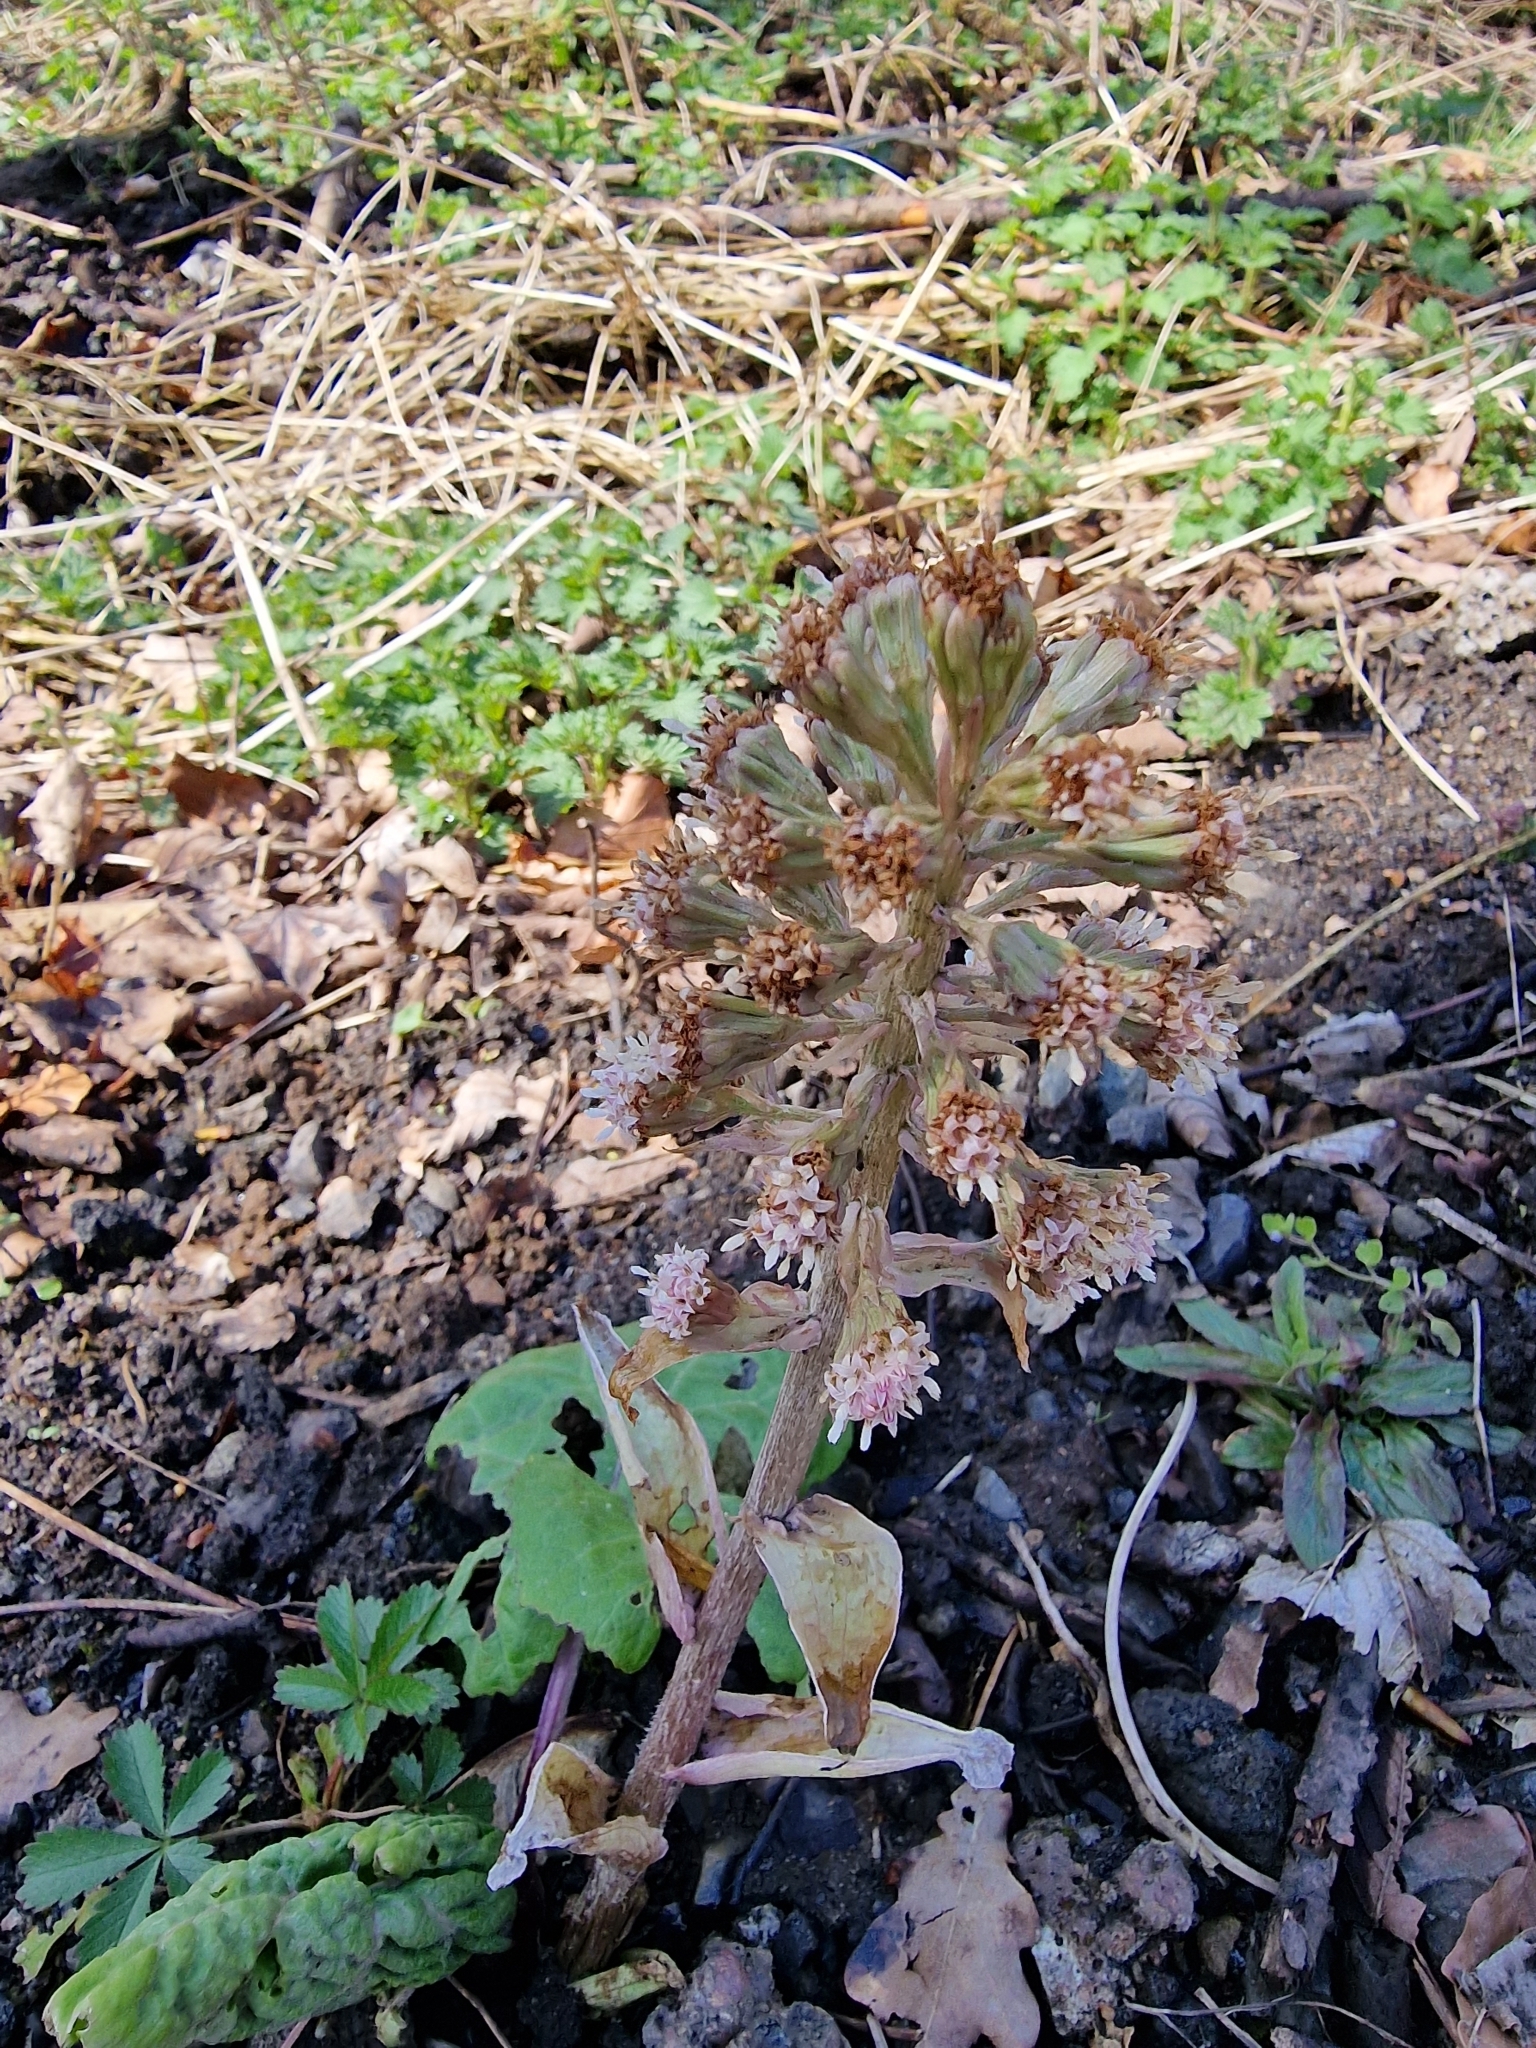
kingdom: Plantae
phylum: Tracheophyta
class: Magnoliopsida
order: Asterales
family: Asteraceae
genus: Petasites
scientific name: Petasites hybridus
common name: Butterbur
